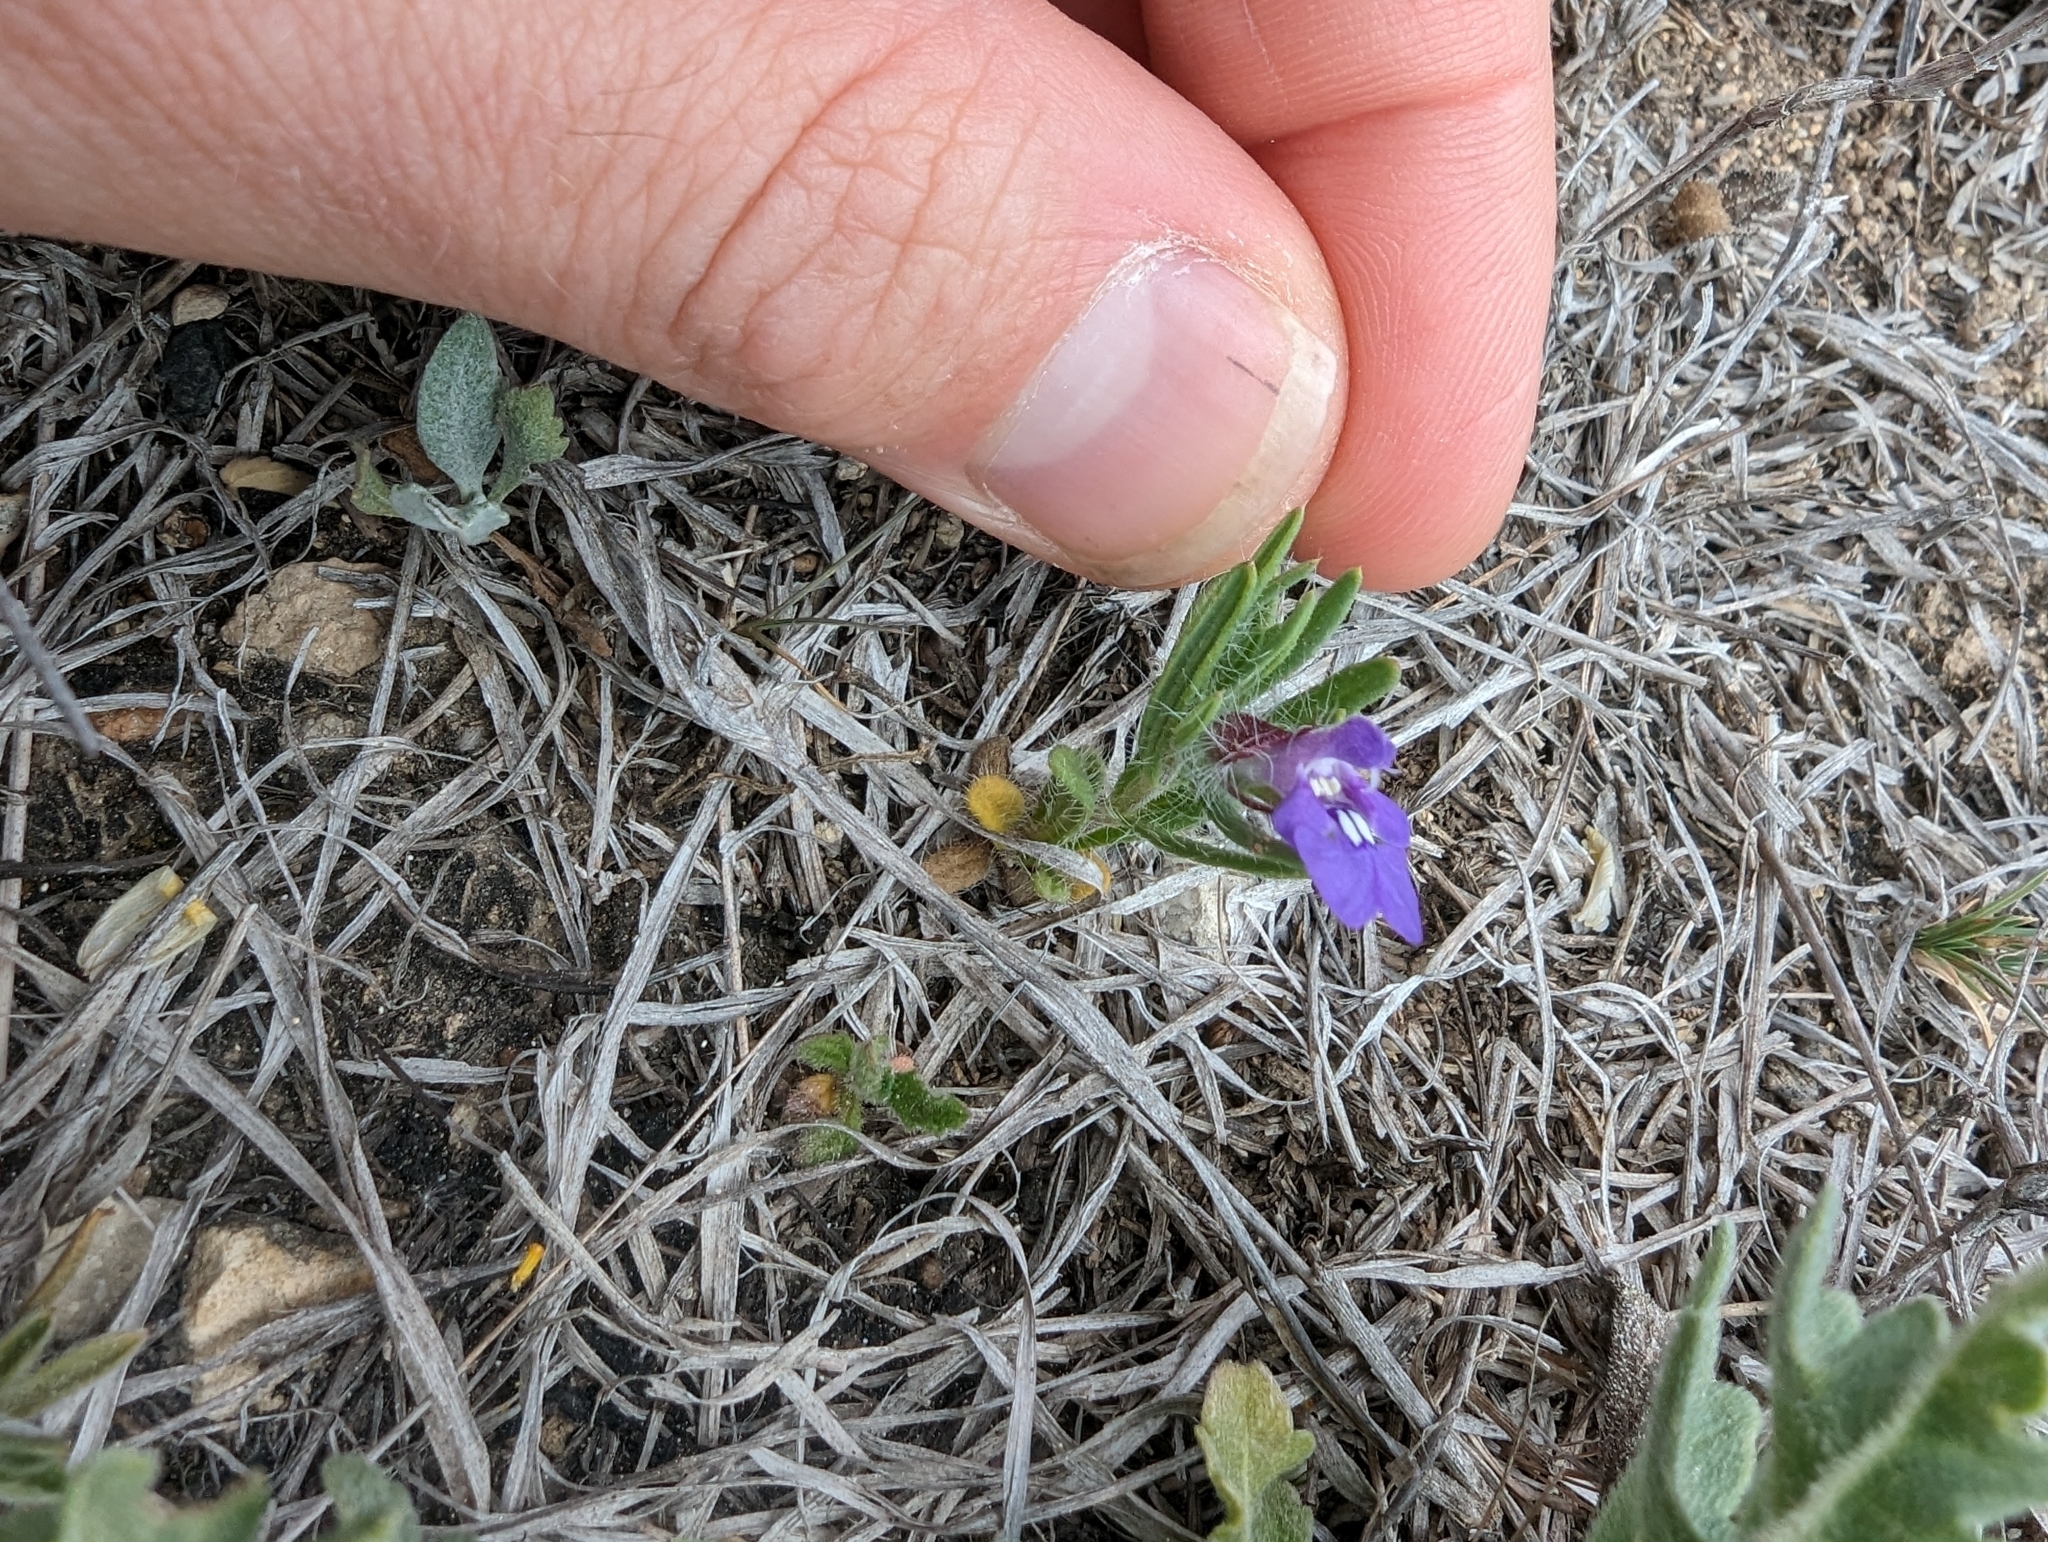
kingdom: Plantae
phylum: Tracheophyta
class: Magnoliopsida
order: Lamiales
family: Lamiaceae
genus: Salvia
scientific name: Salvia texana
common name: Texas sage
